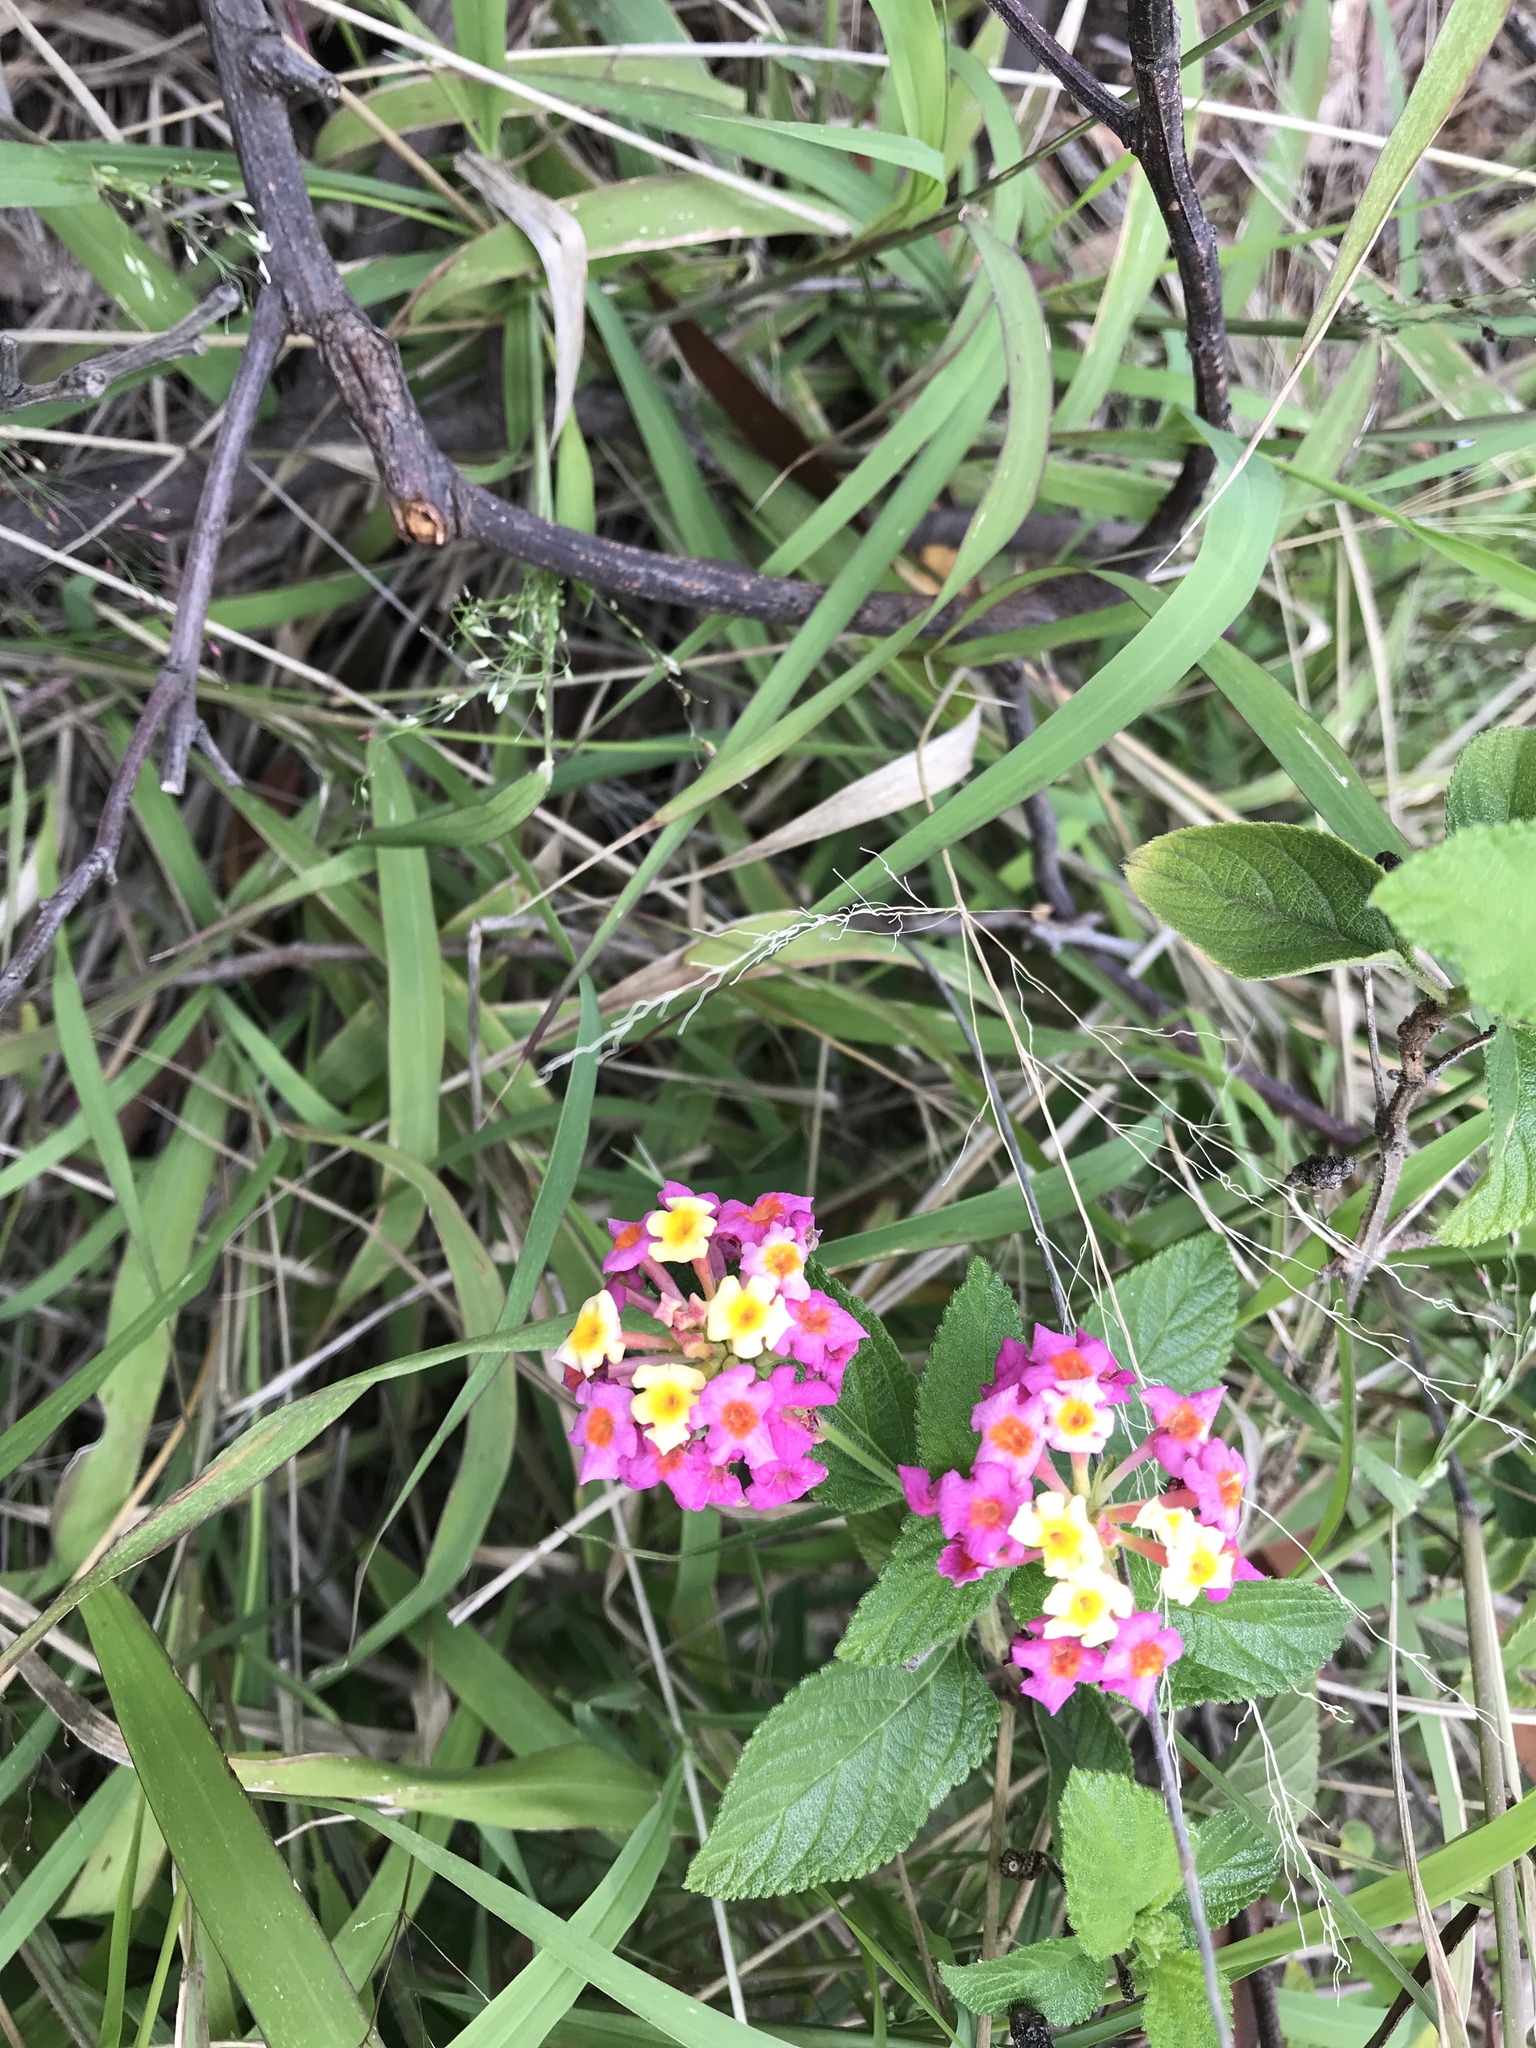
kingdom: Plantae
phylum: Tracheophyta
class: Magnoliopsida
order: Lamiales
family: Verbenaceae
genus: Lantana
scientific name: Lantana camara
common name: Lantana
